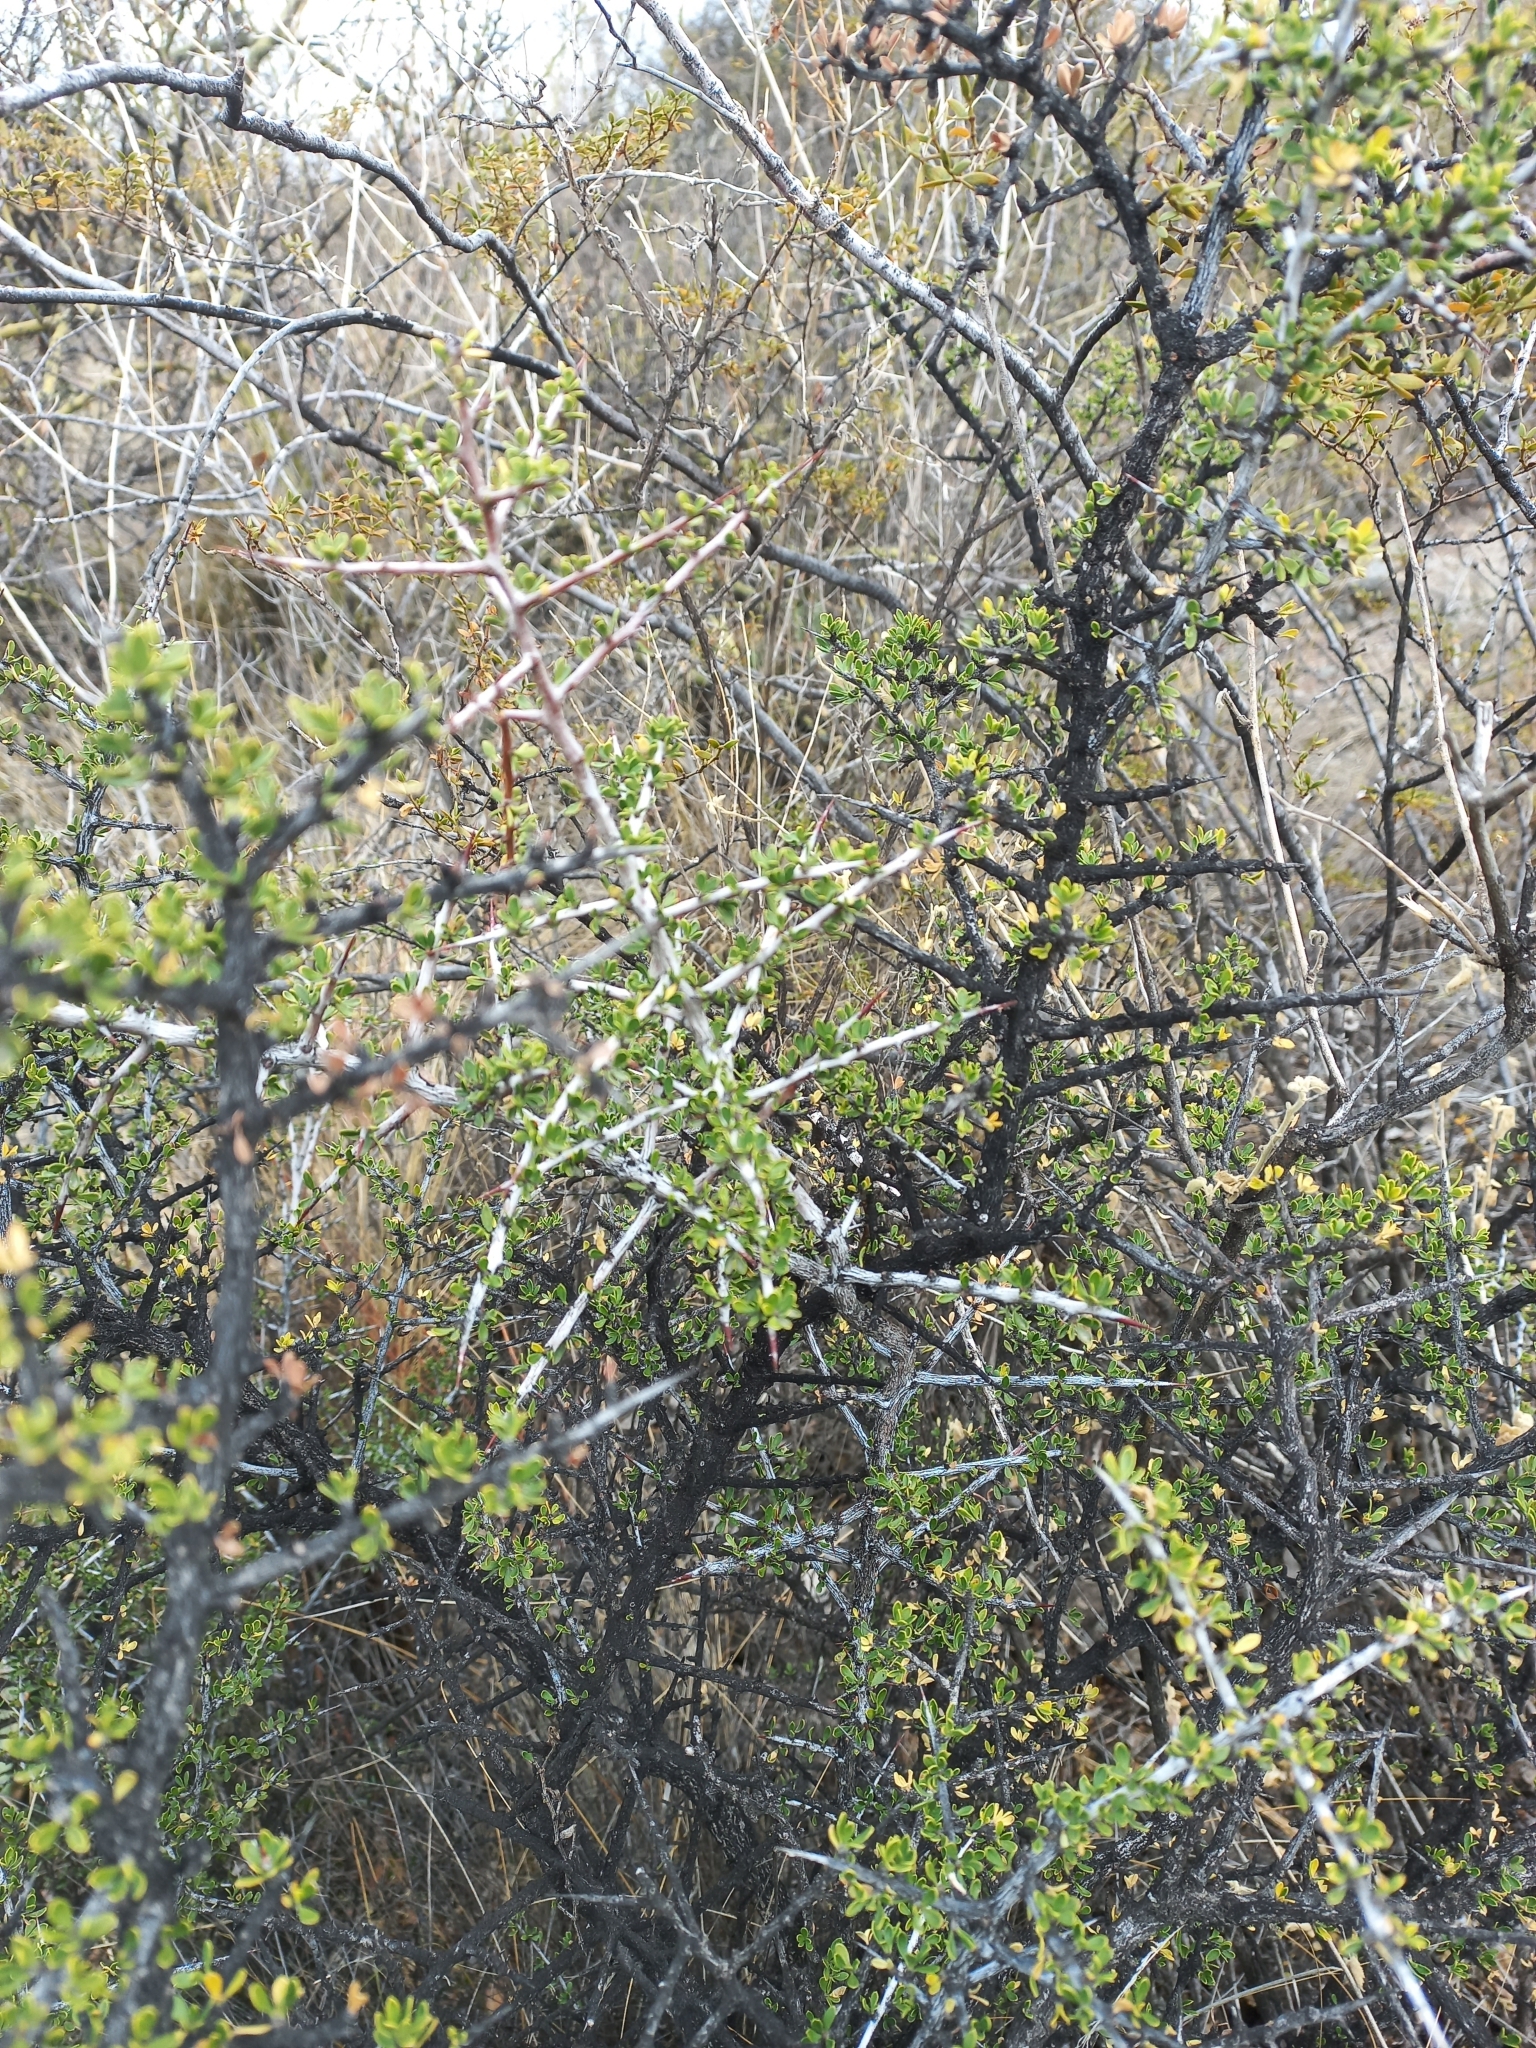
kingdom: Plantae
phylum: Tracheophyta
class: Magnoliopsida
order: Rosales
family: Rhamnaceae
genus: Condalia
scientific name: Condalia microphylla
